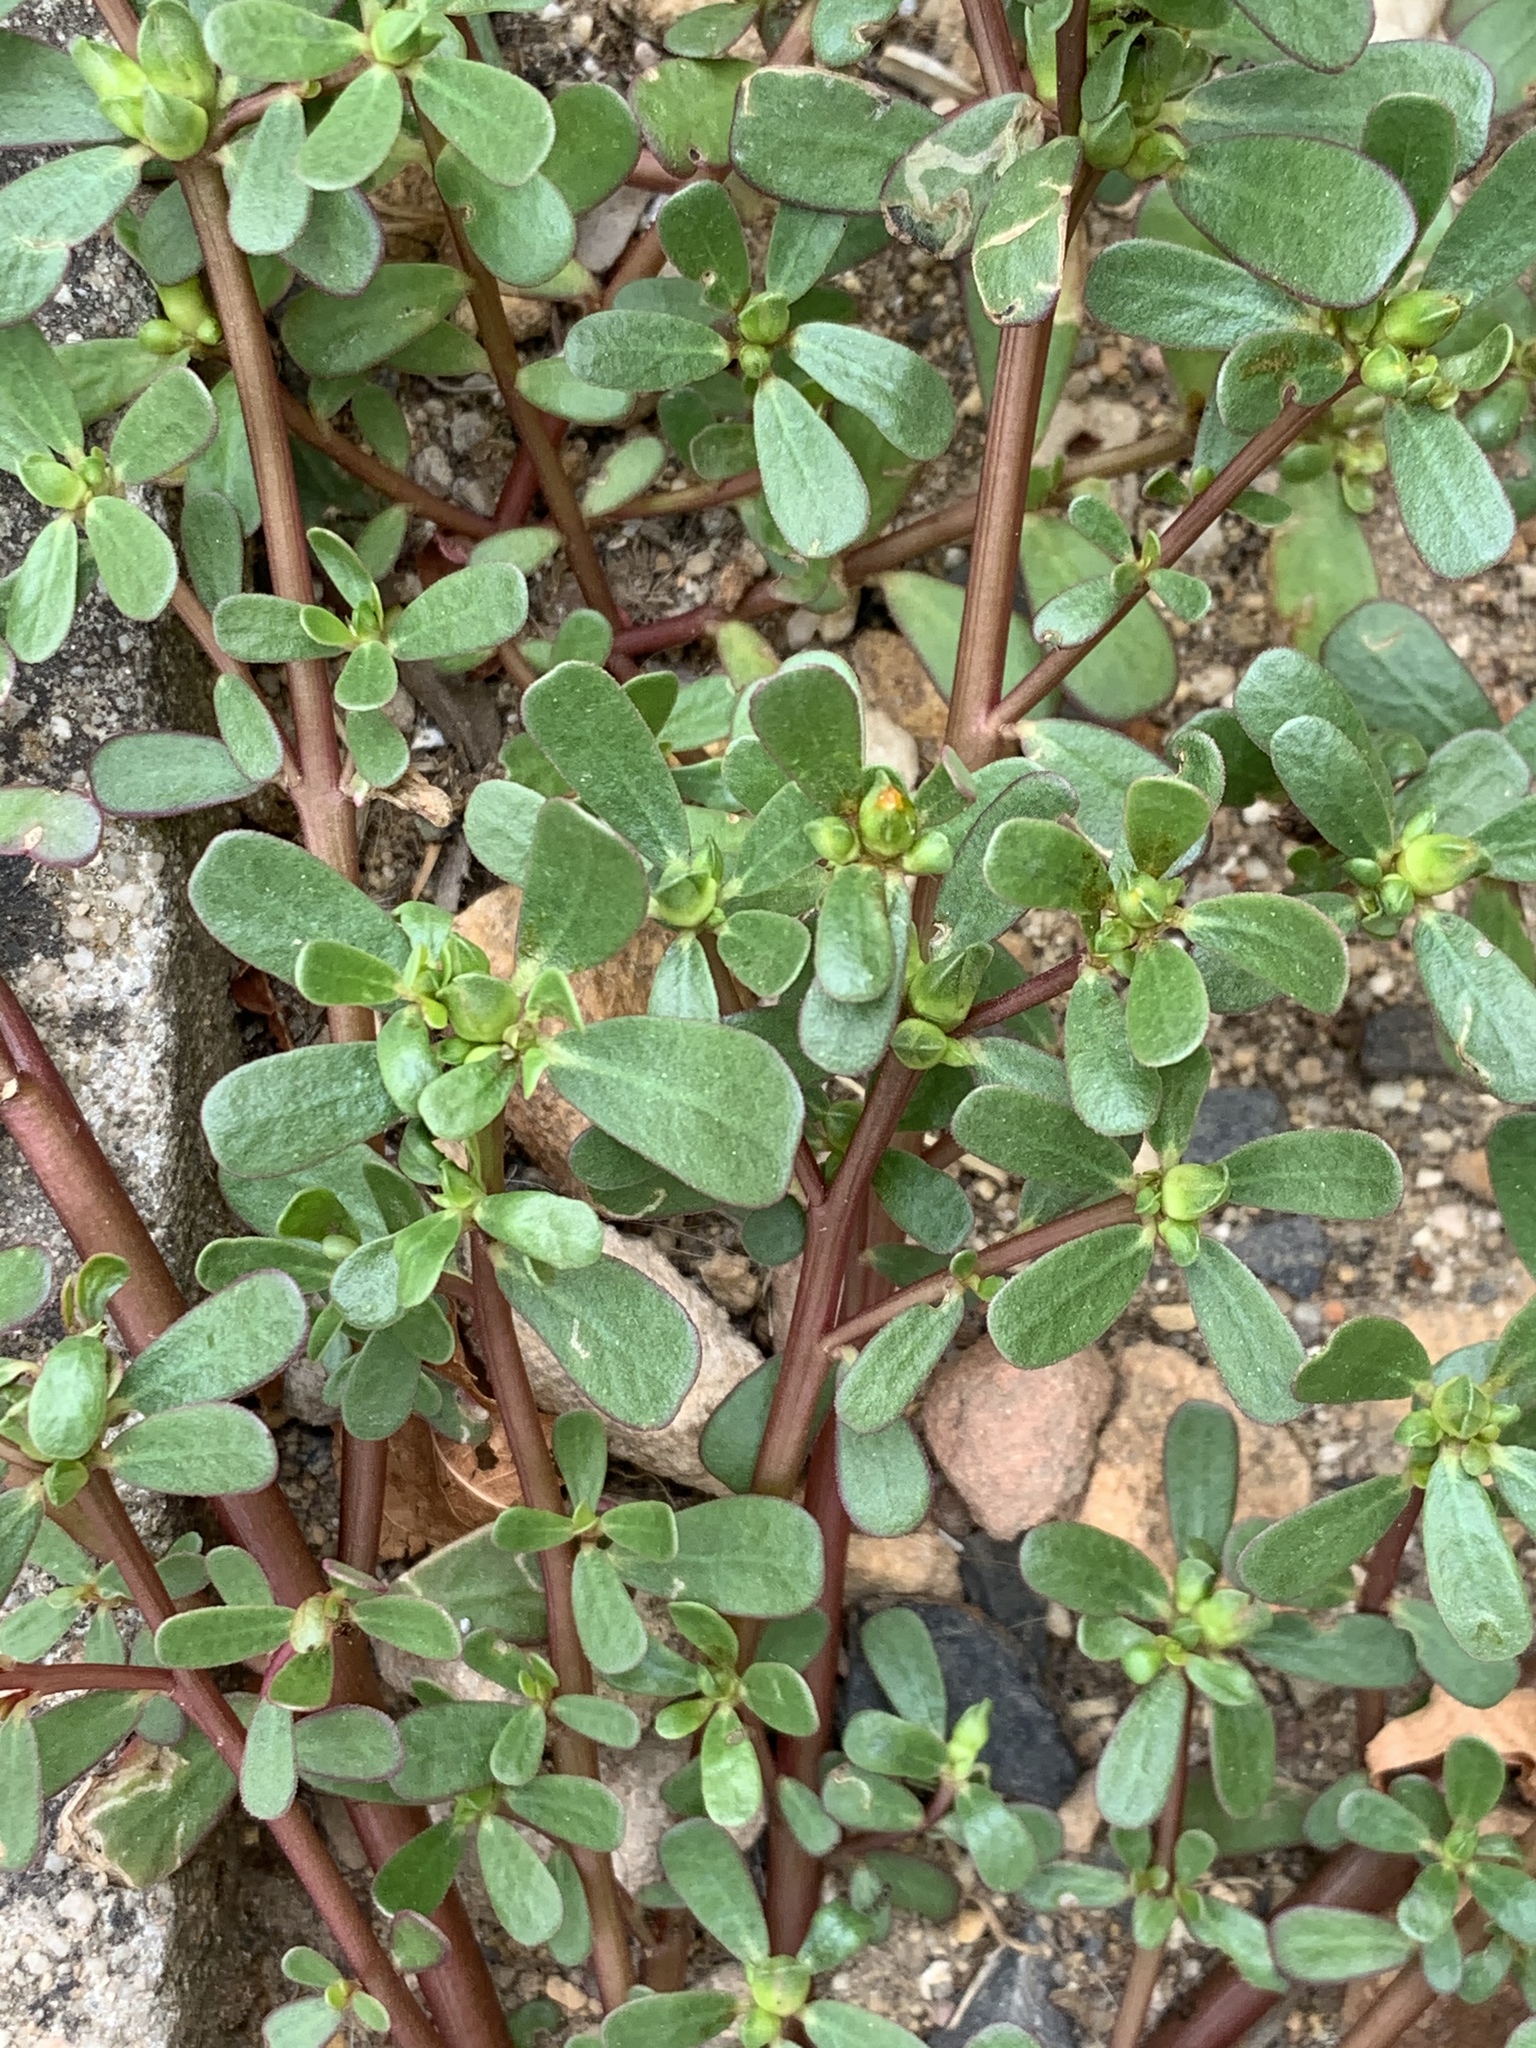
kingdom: Plantae
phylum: Tracheophyta
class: Magnoliopsida
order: Caryophyllales
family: Portulacaceae
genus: Portulaca
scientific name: Portulaca oleracea
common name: Common purslane
